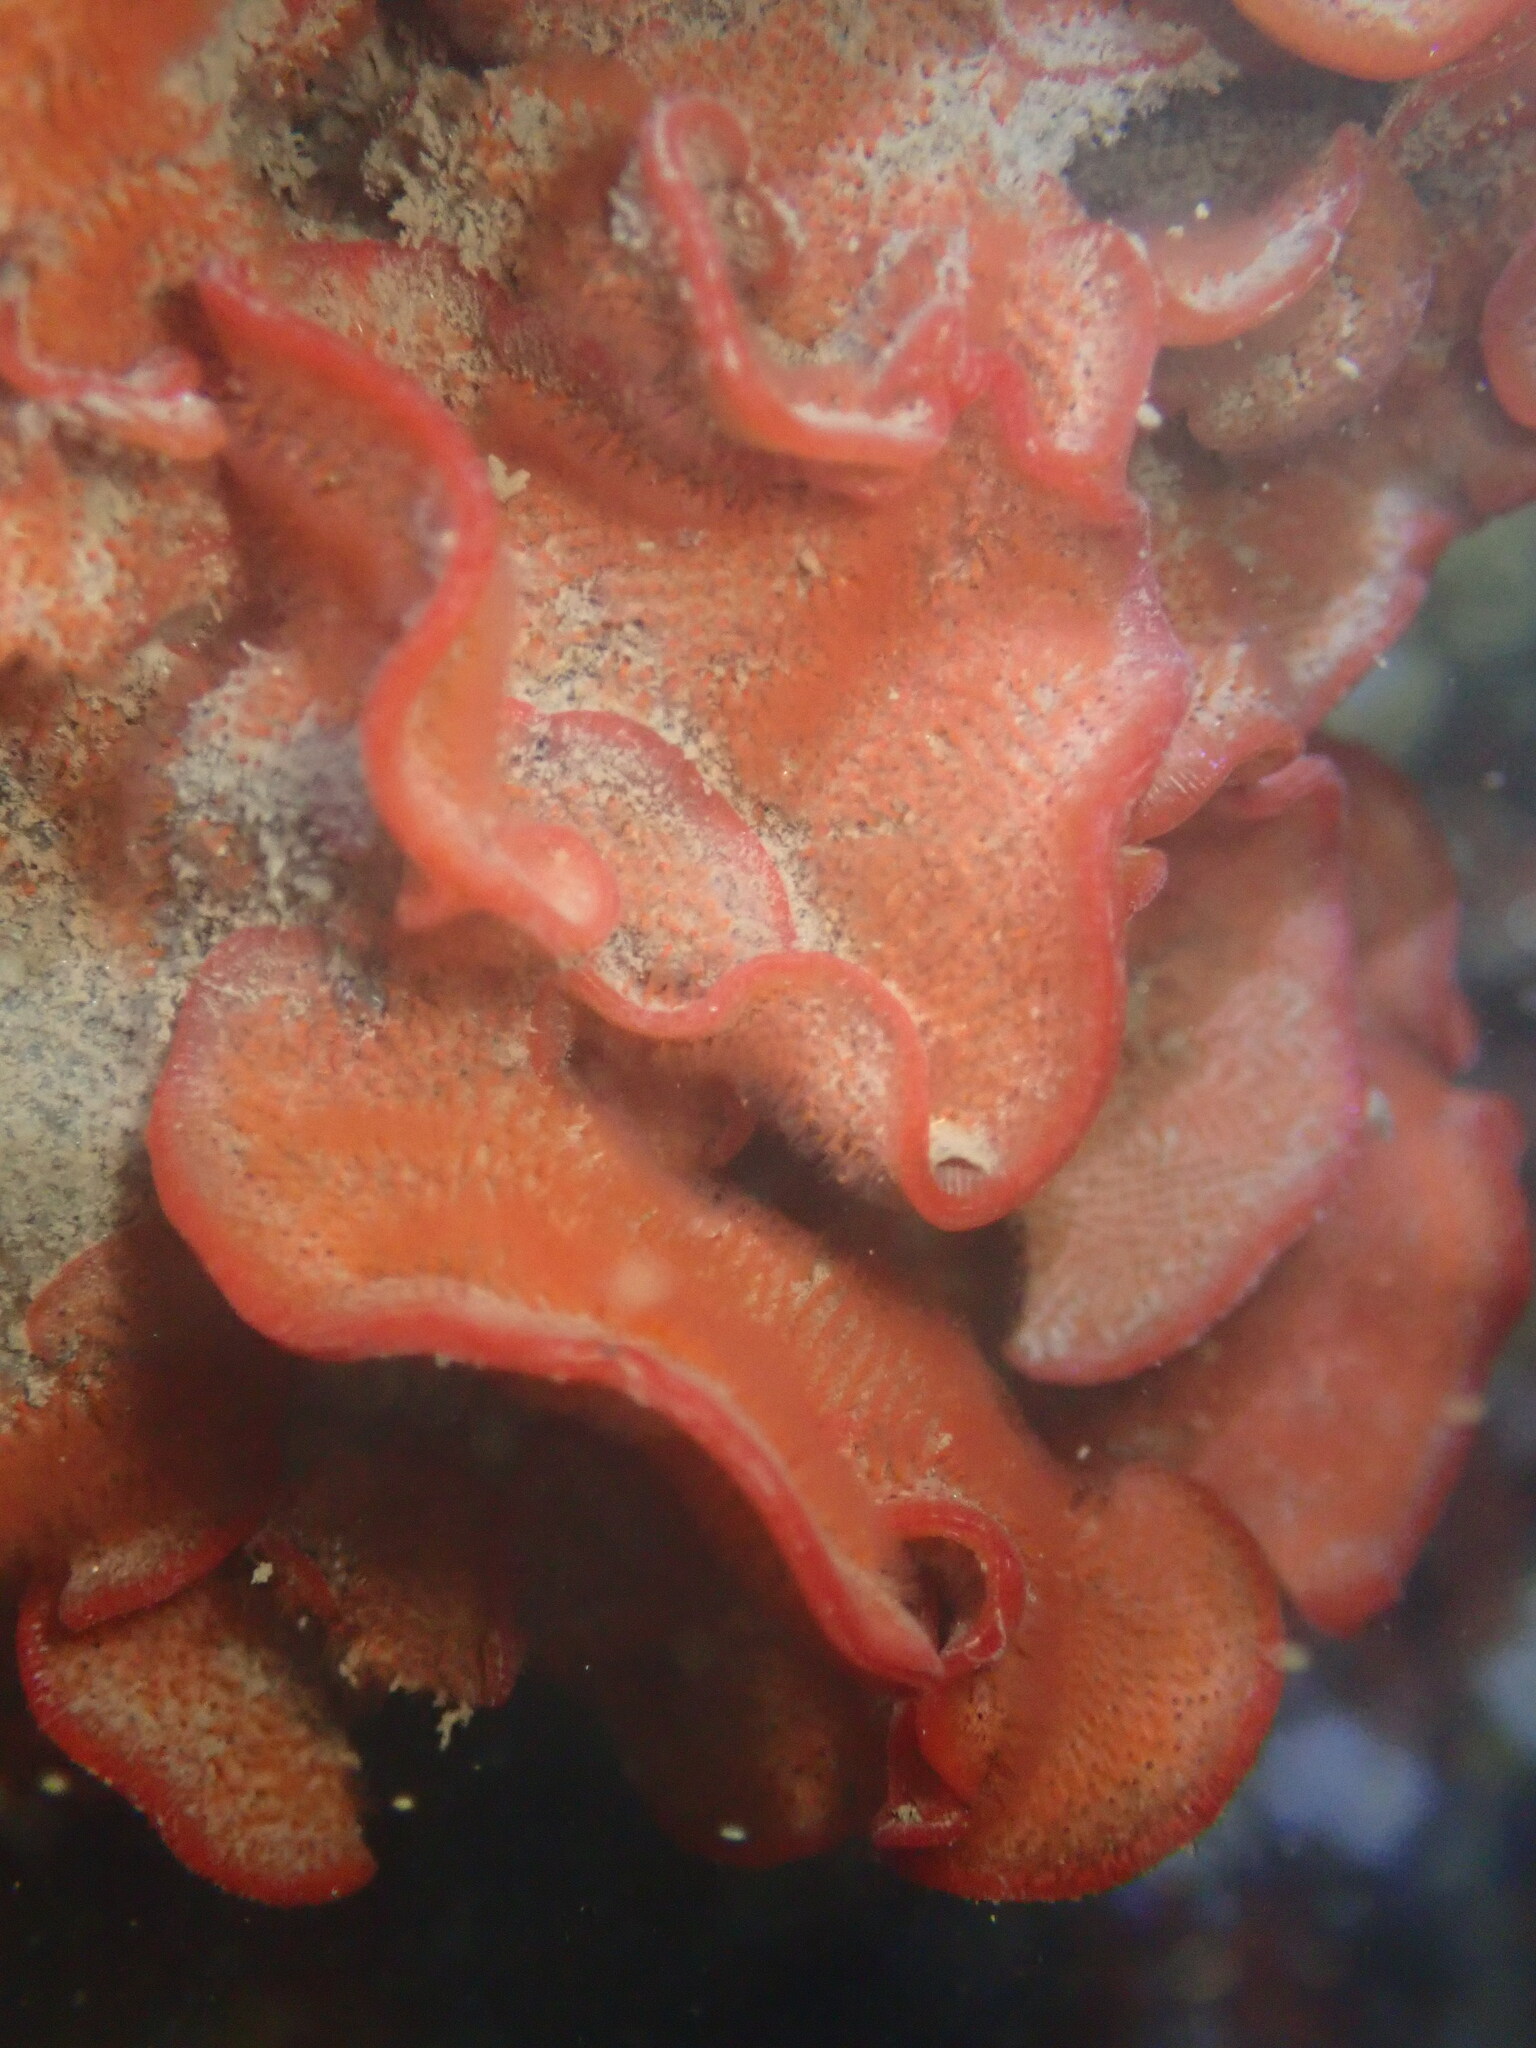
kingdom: Animalia
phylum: Bryozoa
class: Gymnolaemata
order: Cheilostomatida
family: Watersiporidae
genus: Watersipora
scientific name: Watersipora subtorquata
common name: Bryozoan
